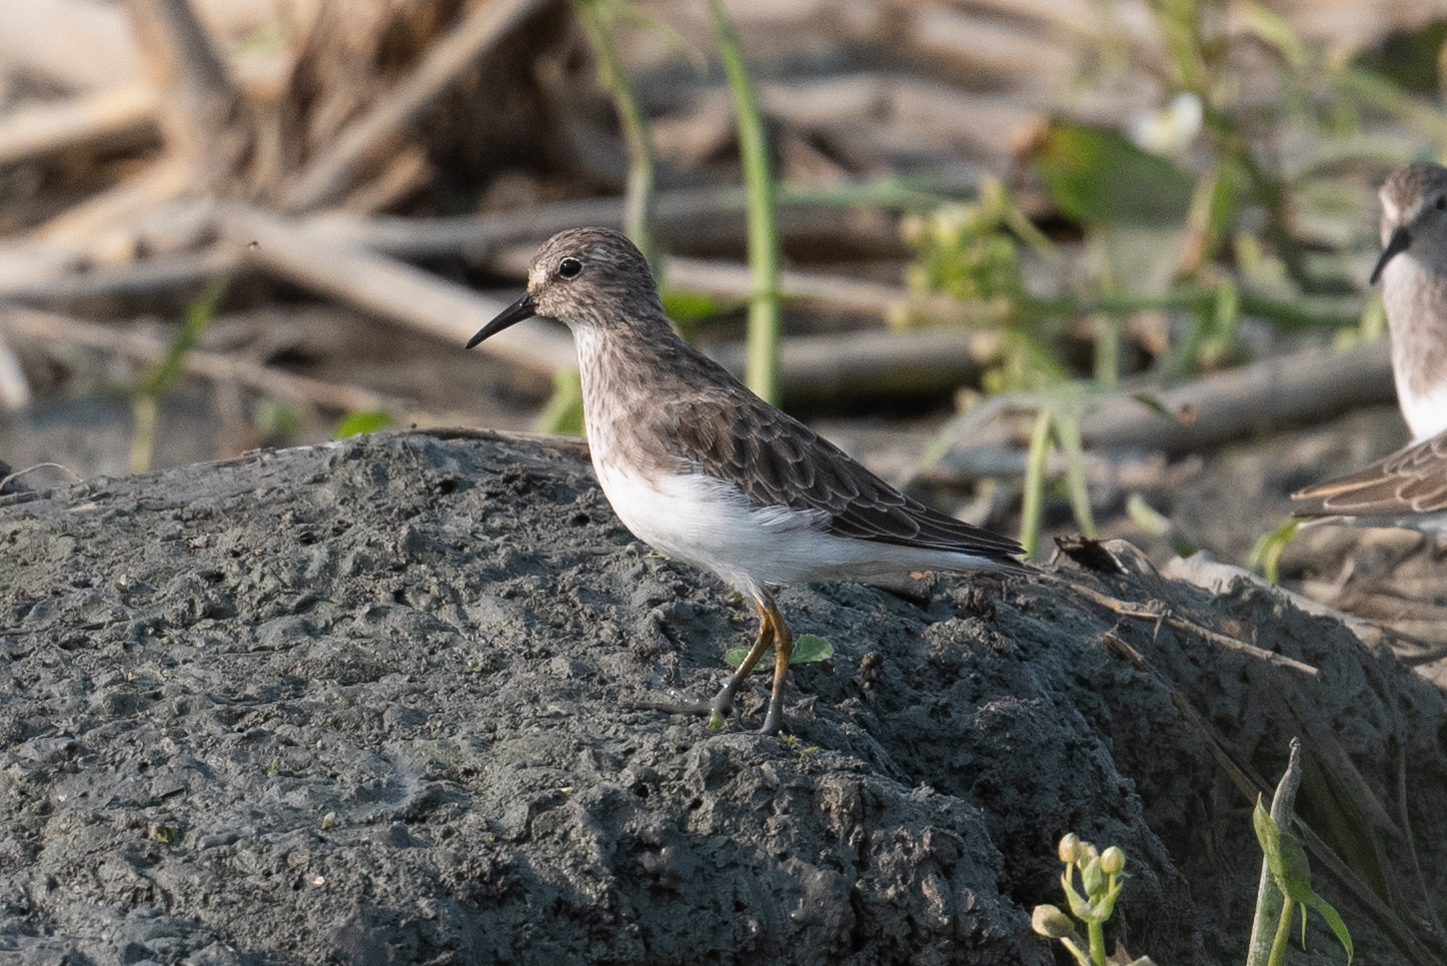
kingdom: Animalia
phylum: Chordata
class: Aves
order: Charadriiformes
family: Scolopacidae
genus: Calidris
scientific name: Calidris minutilla
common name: Least sandpiper
